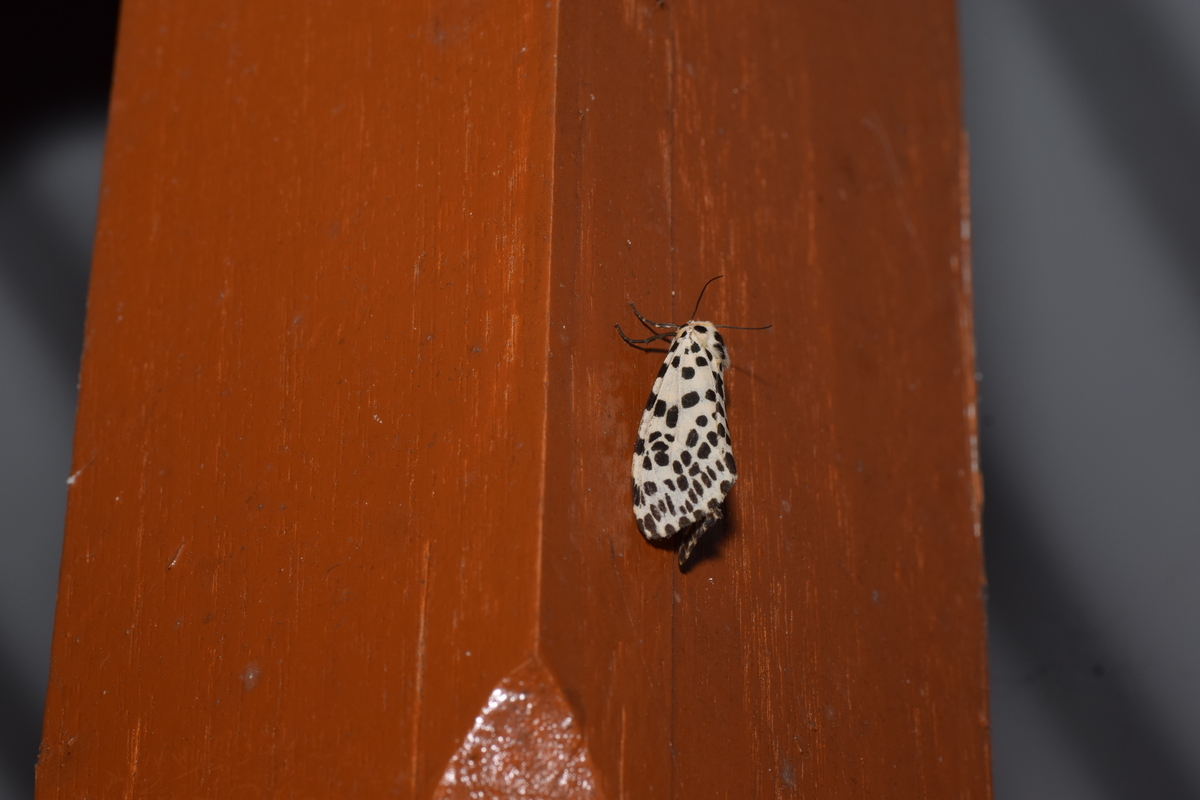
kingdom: Animalia
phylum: Arthropoda
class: Insecta
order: Lepidoptera
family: Erebidae
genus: Juxtarctia
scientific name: Juxtarctia
